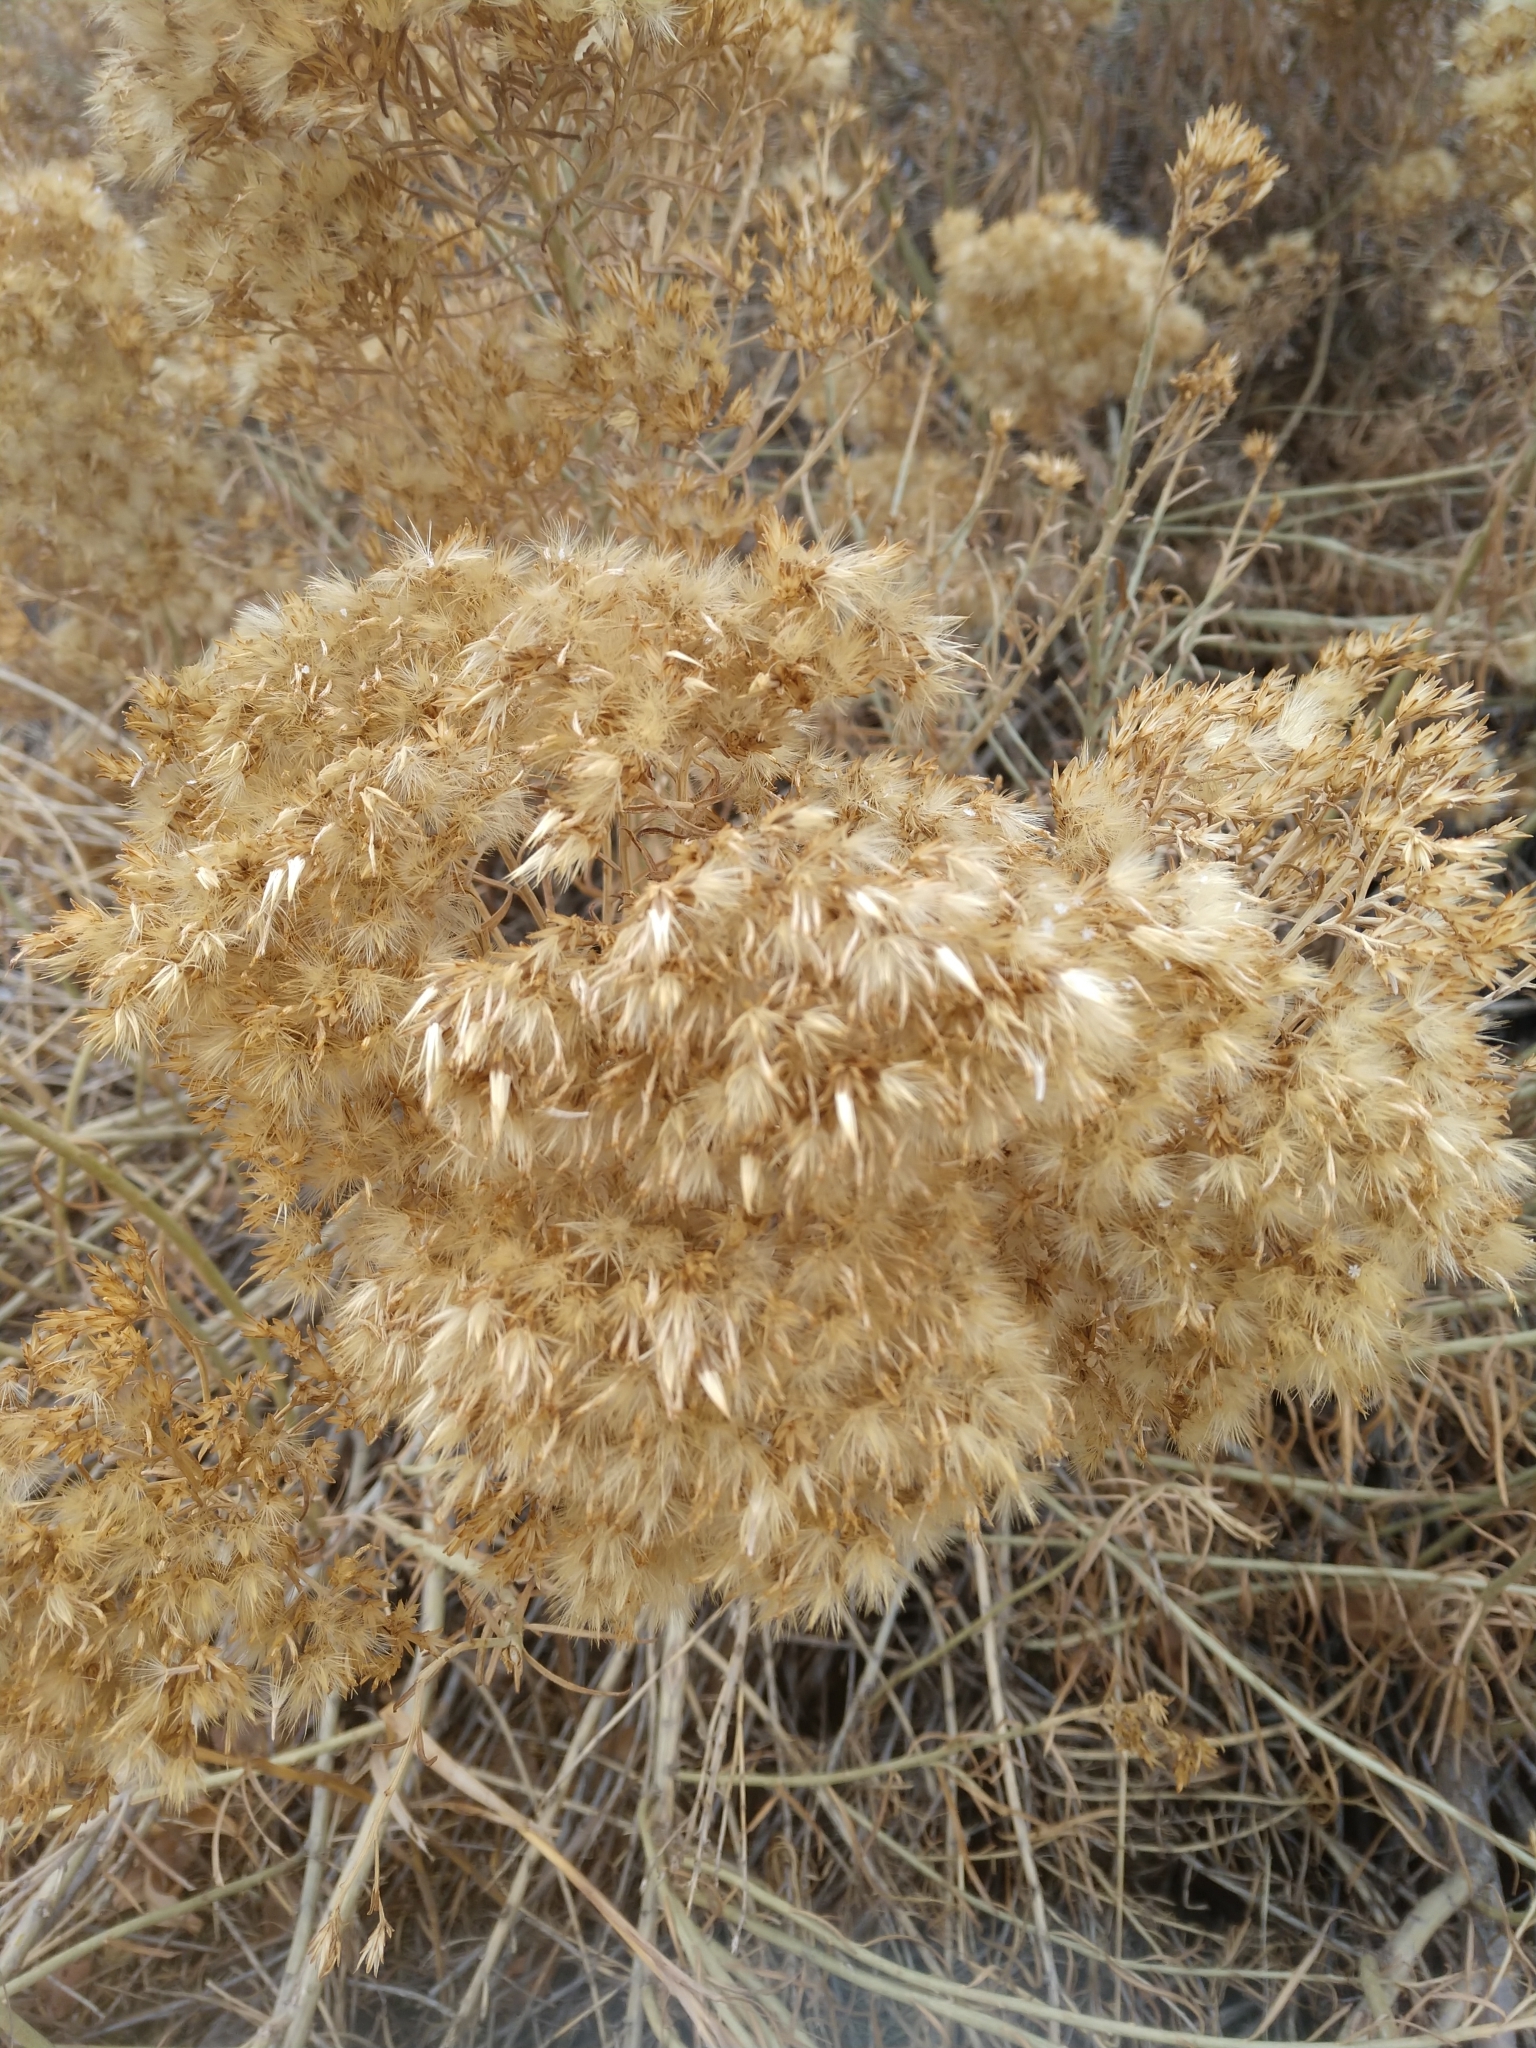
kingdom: Plantae
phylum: Tracheophyta
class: Magnoliopsida
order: Asterales
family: Asteraceae
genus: Ericameria
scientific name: Ericameria nauseosa
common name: Rubber rabbitbrush
